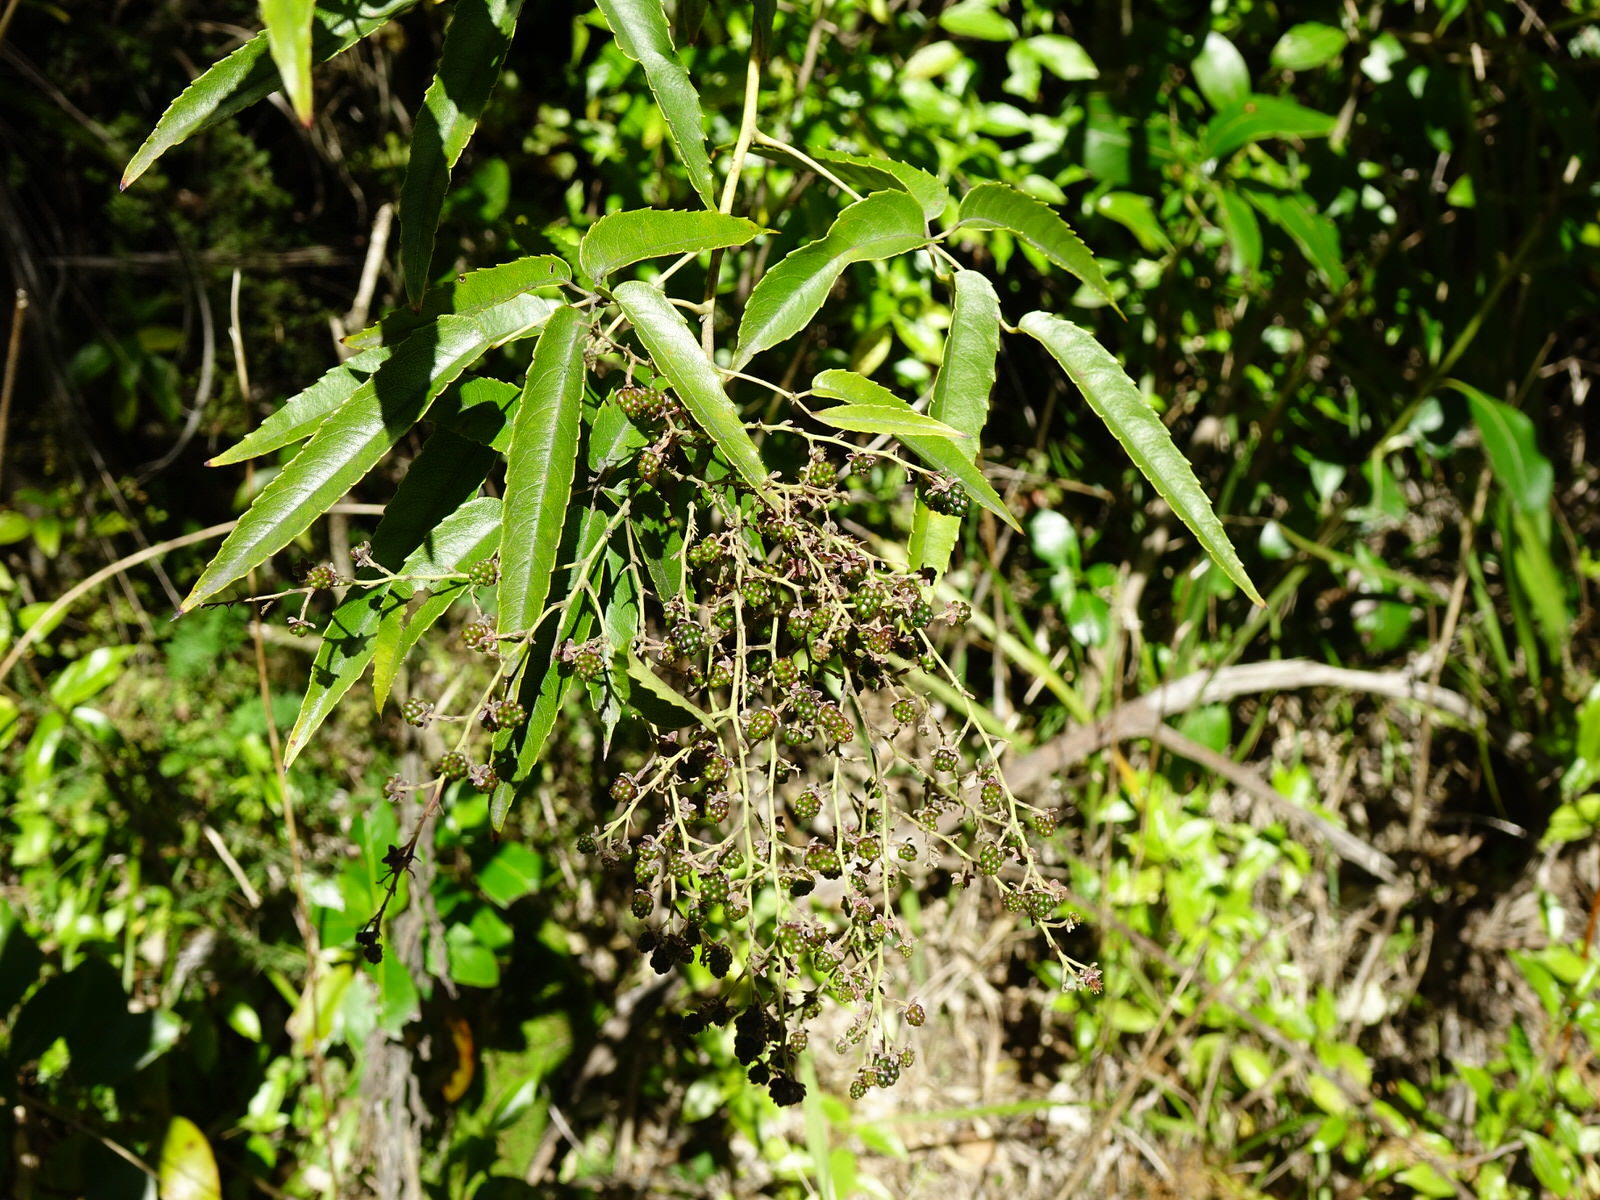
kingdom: Plantae
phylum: Tracheophyta
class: Magnoliopsida
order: Rosales
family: Rosaceae
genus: Rubus
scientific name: Rubus cissoides
